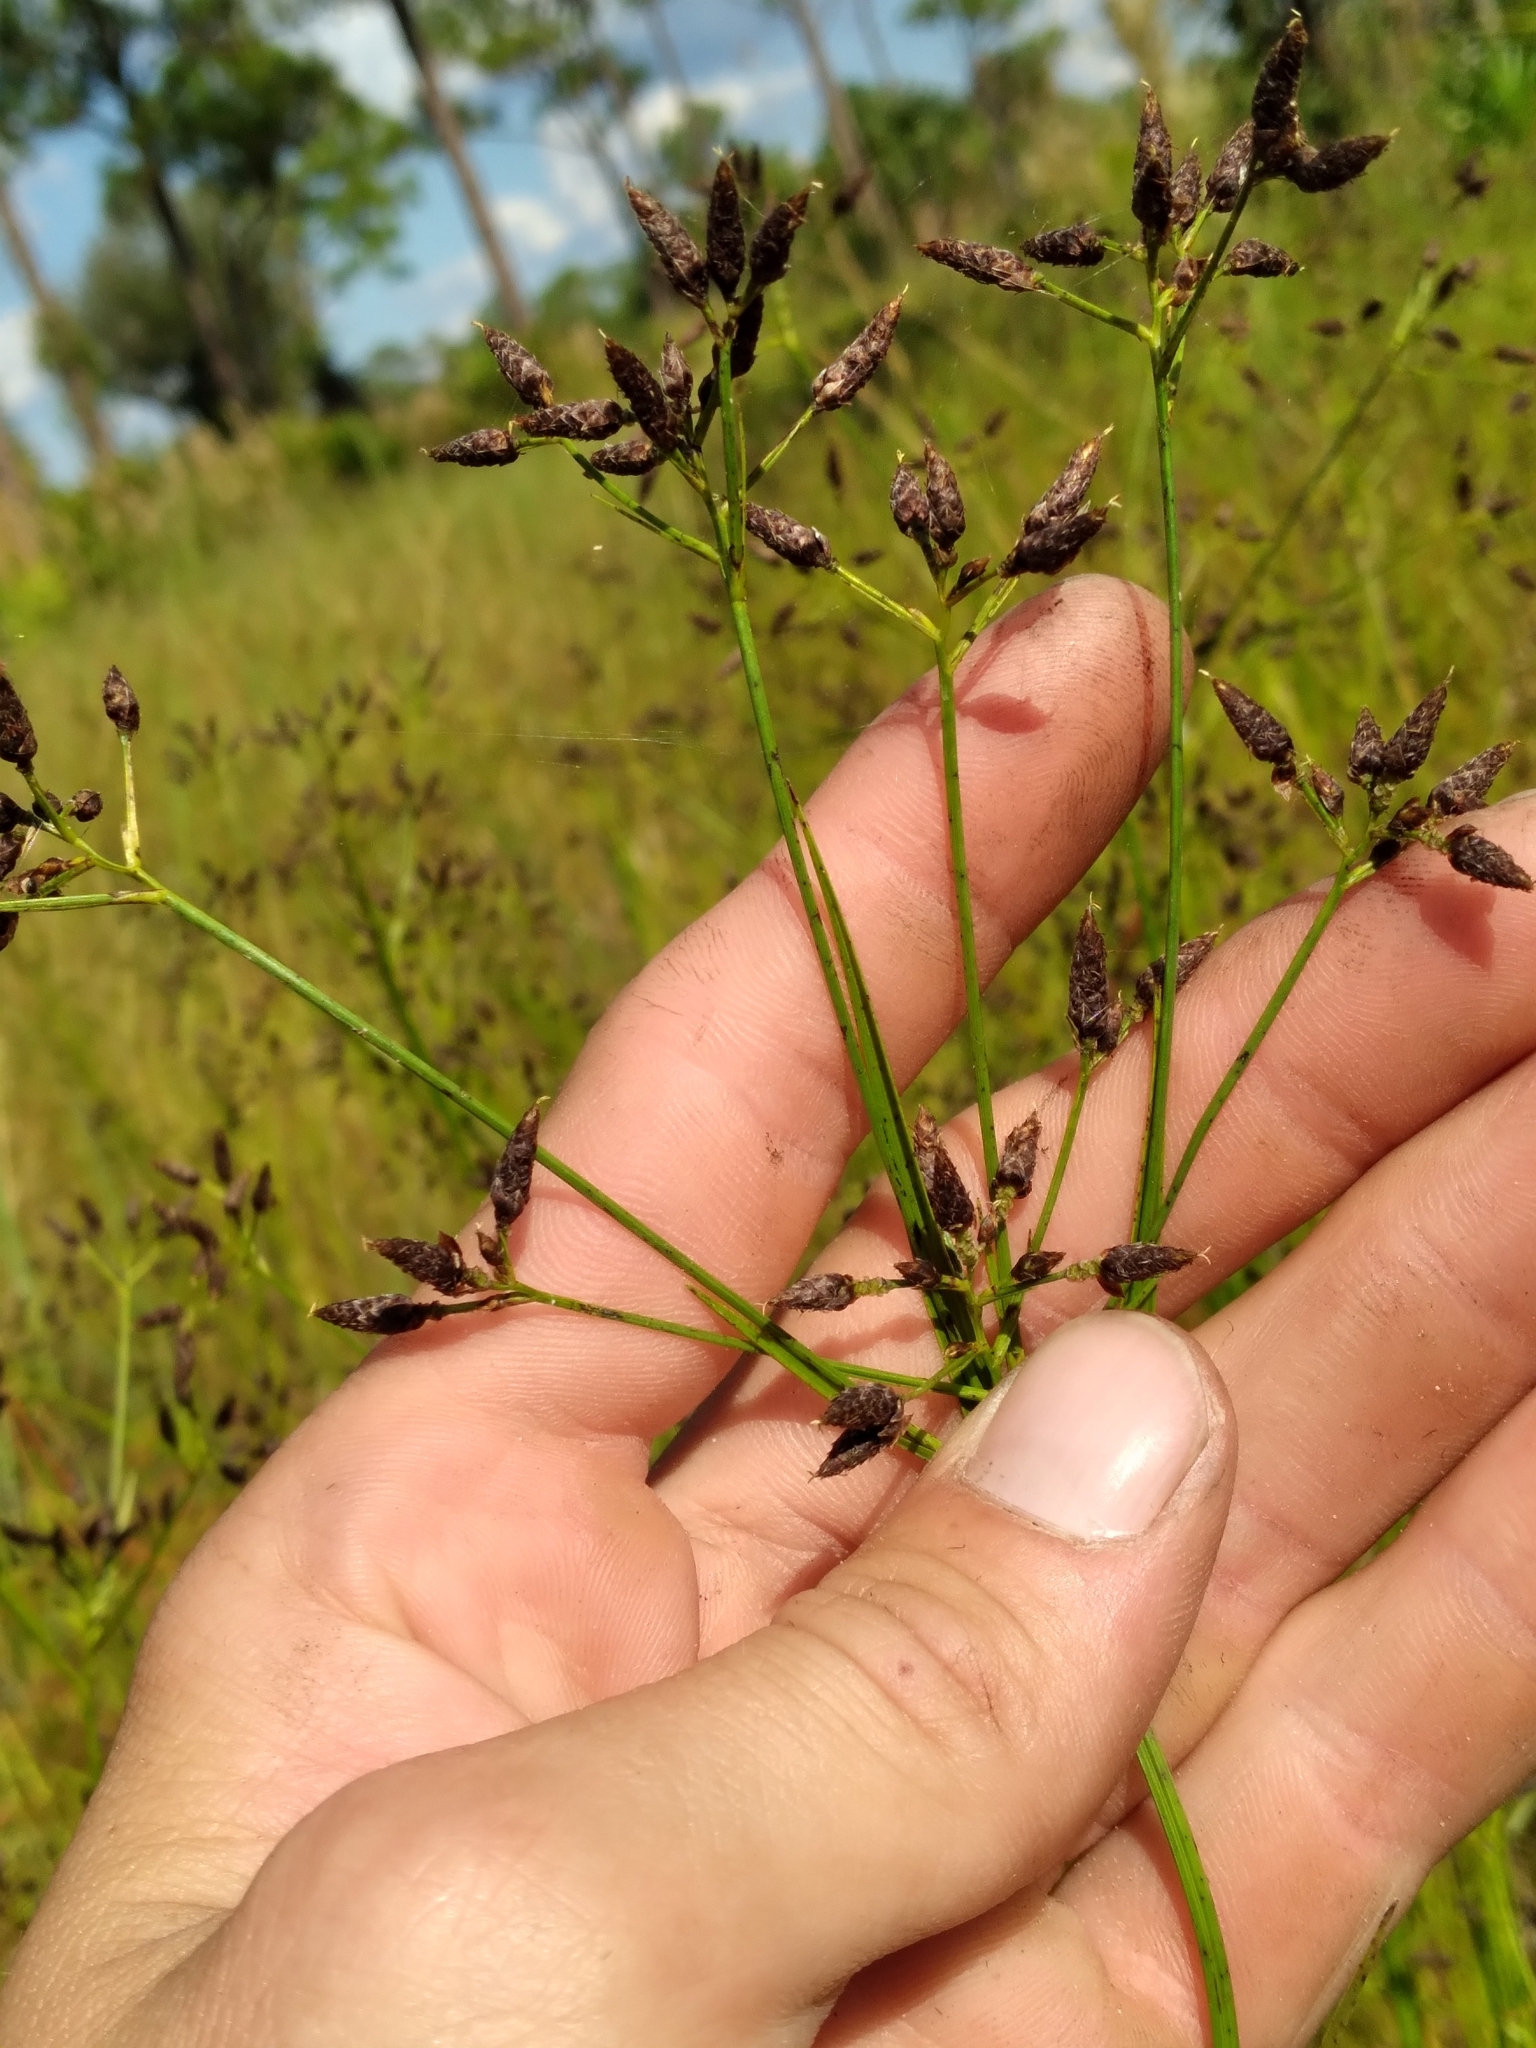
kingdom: Plantae
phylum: Tracheophyta
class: Liliopsida
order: Poales
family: Cyperaceae
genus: Rhynchospora
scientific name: Rhynchospora nitens
